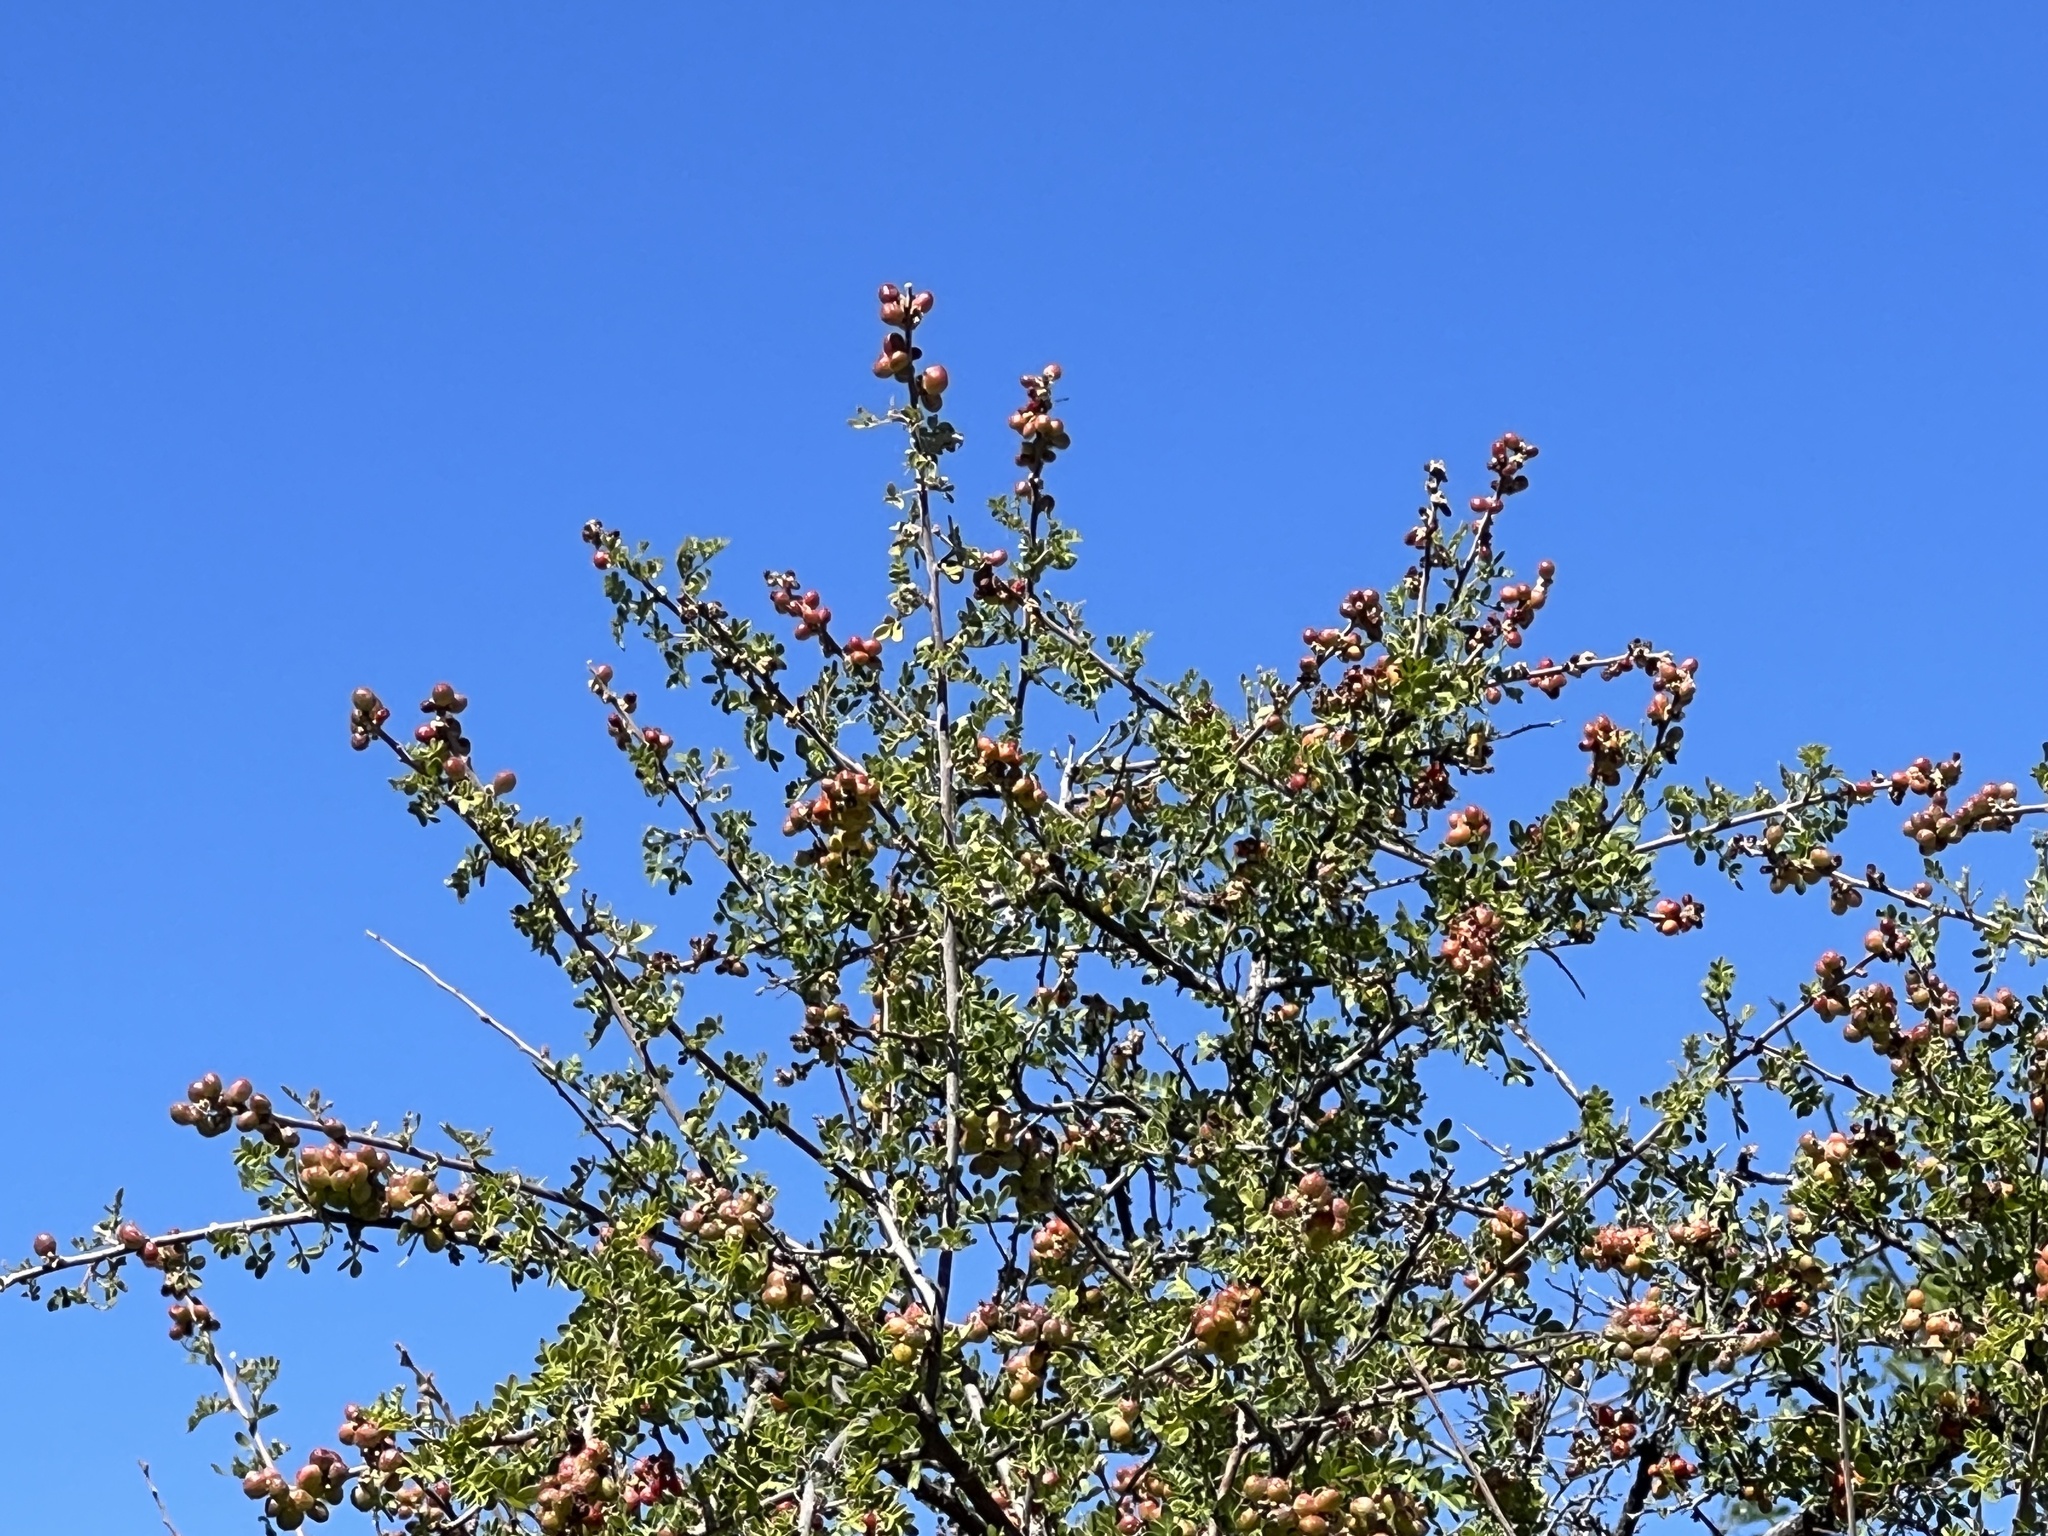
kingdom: Plantae
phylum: Tracheophyta
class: Magnoliopsida
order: Sapindales
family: Anacardiaceae
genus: Rhus
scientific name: Rhus microphylla
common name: Desert sumac
